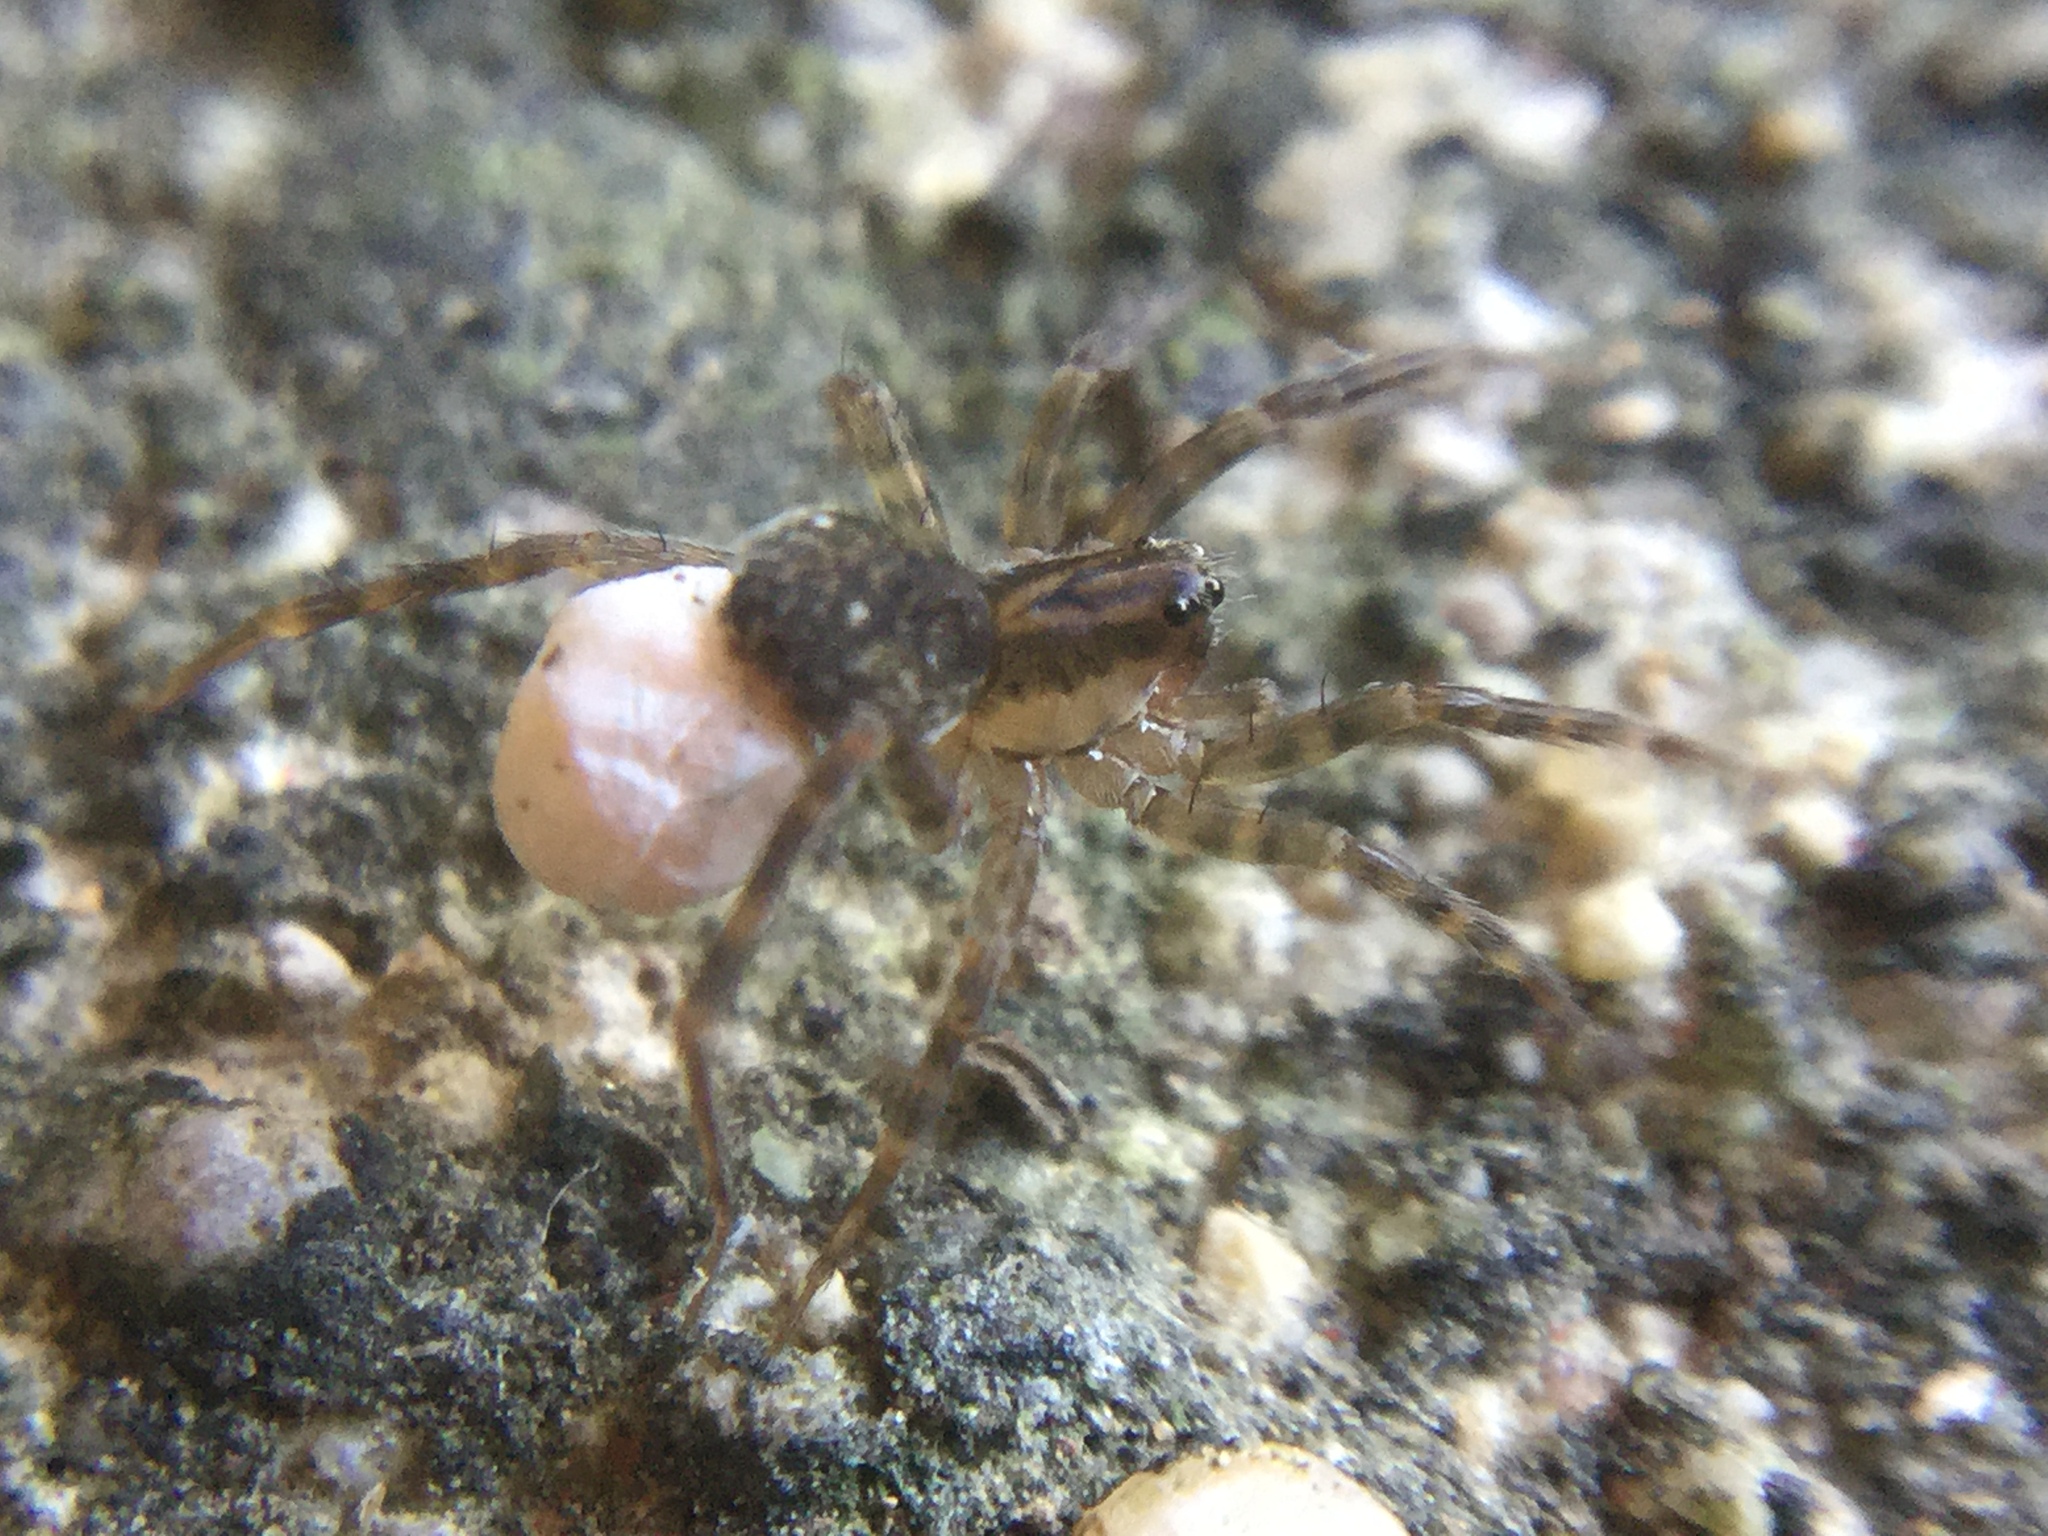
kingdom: Animalia
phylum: Arthropoda
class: Arachnida
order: Araneae
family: Lycosidae
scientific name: Lycosidae
